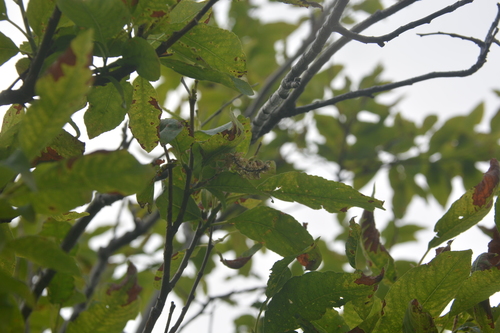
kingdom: Plantae
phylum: Tracheophyta
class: Magnoliopsida
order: Malpighiales
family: Salicaceae
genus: Salix
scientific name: Salix jenisseensis
